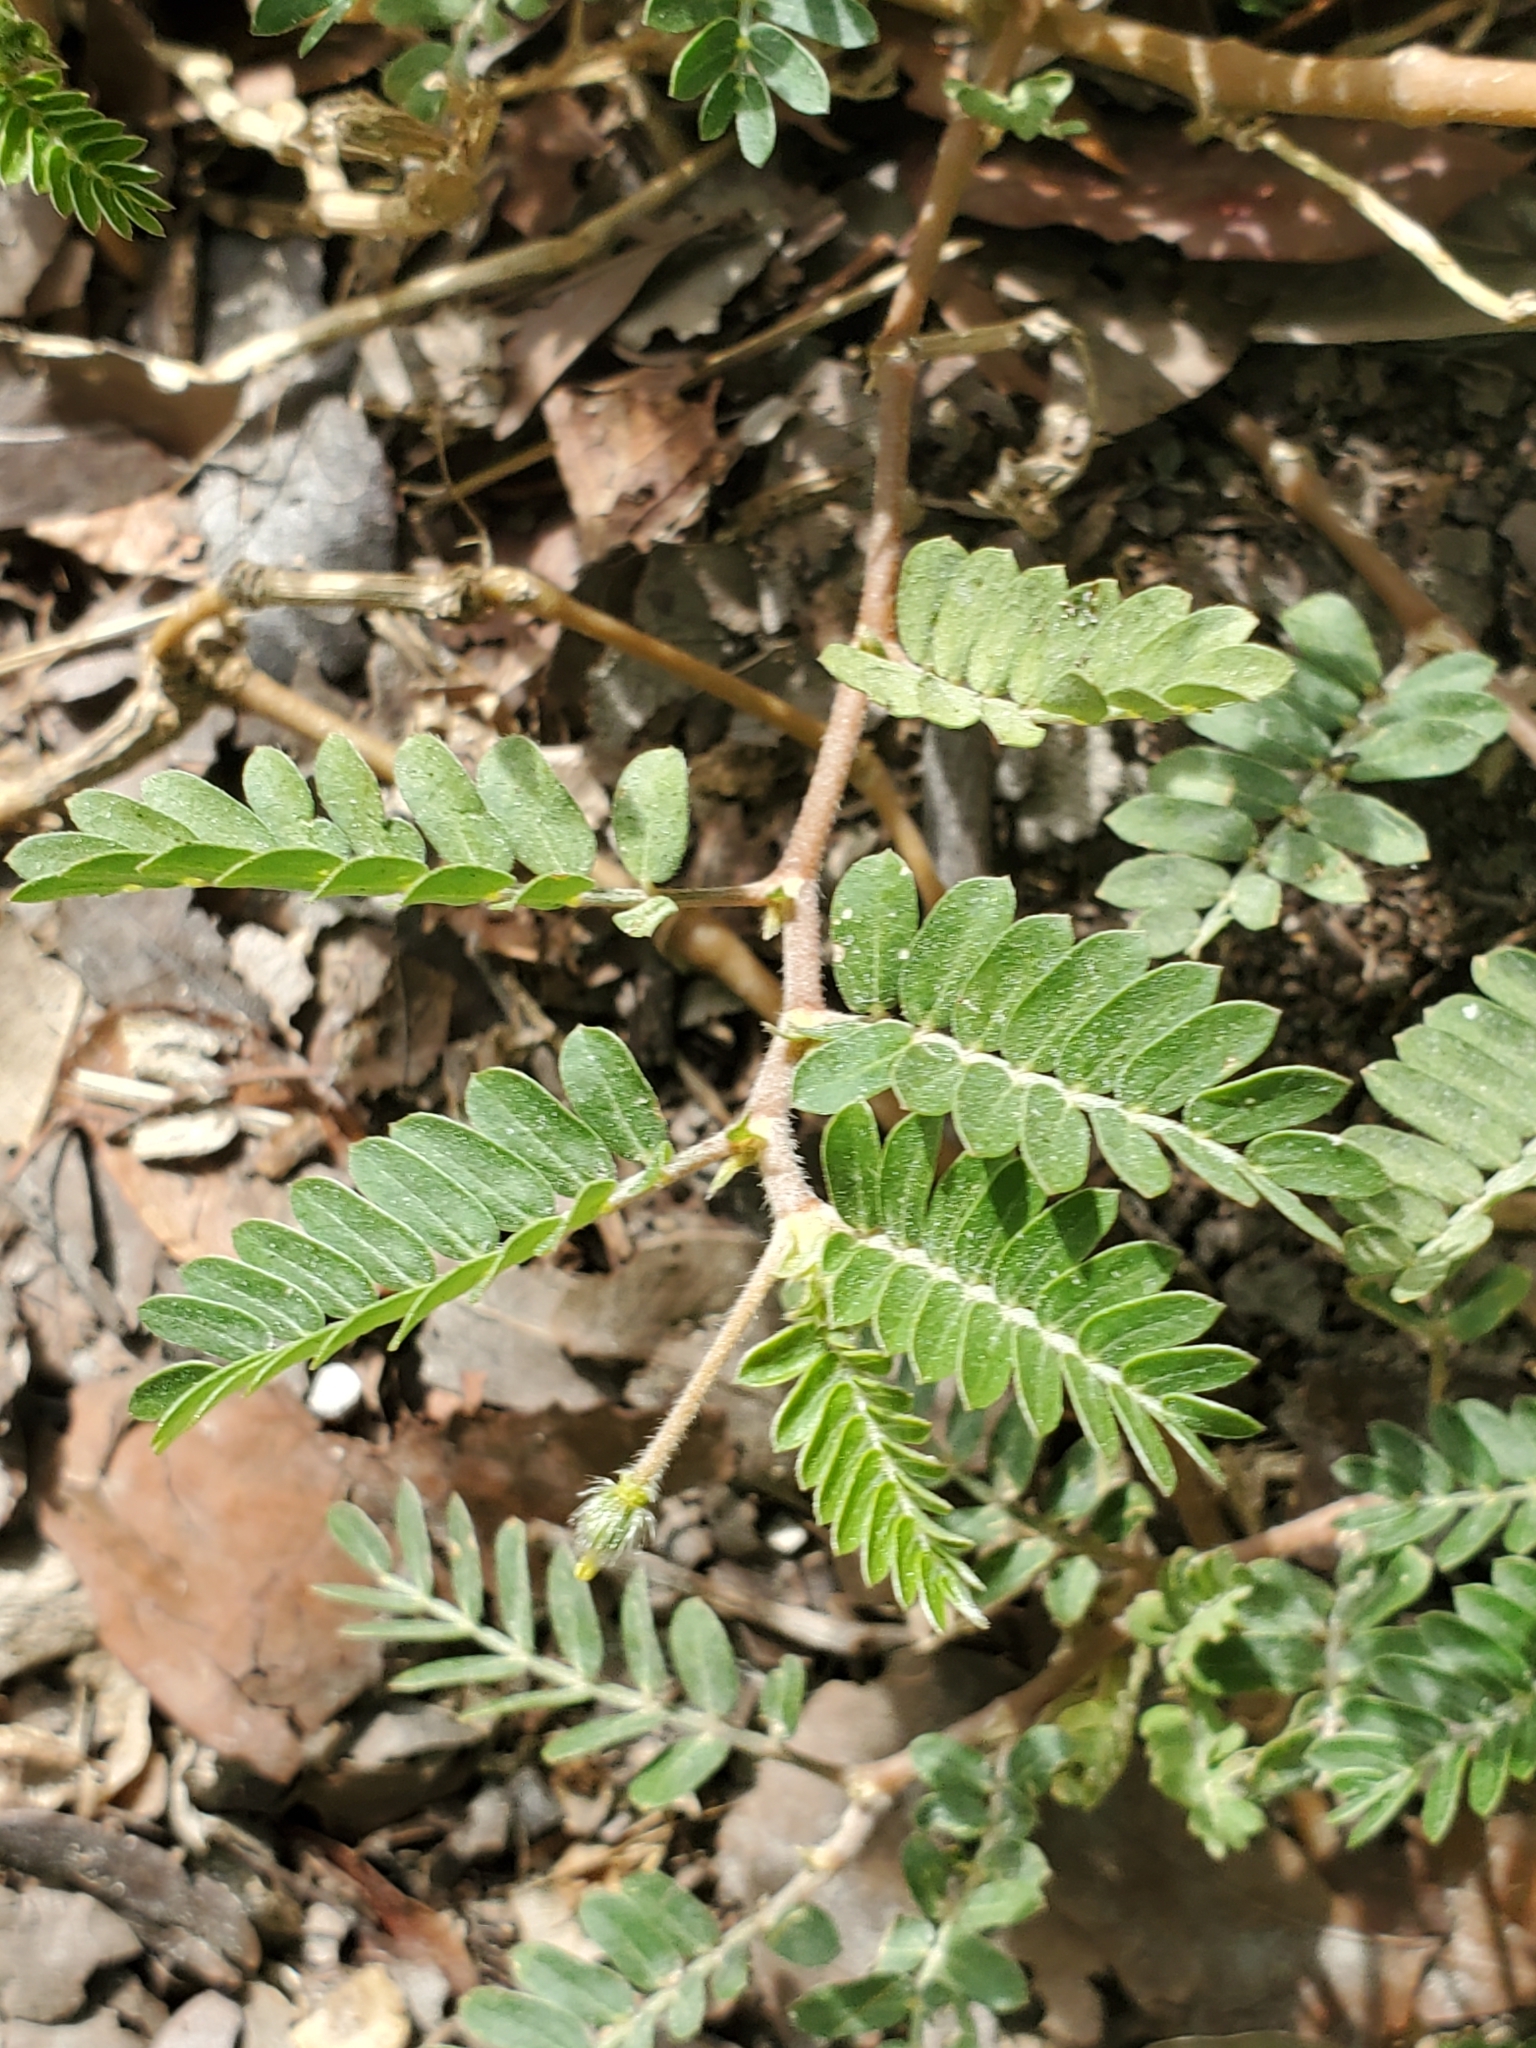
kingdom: Plantae
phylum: Tracheophyta
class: Magnoliopsida
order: Zygophyllales
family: Zygophyllaceae
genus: Tribulus
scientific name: Tribulus cistoides
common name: Jamaican feverplant
